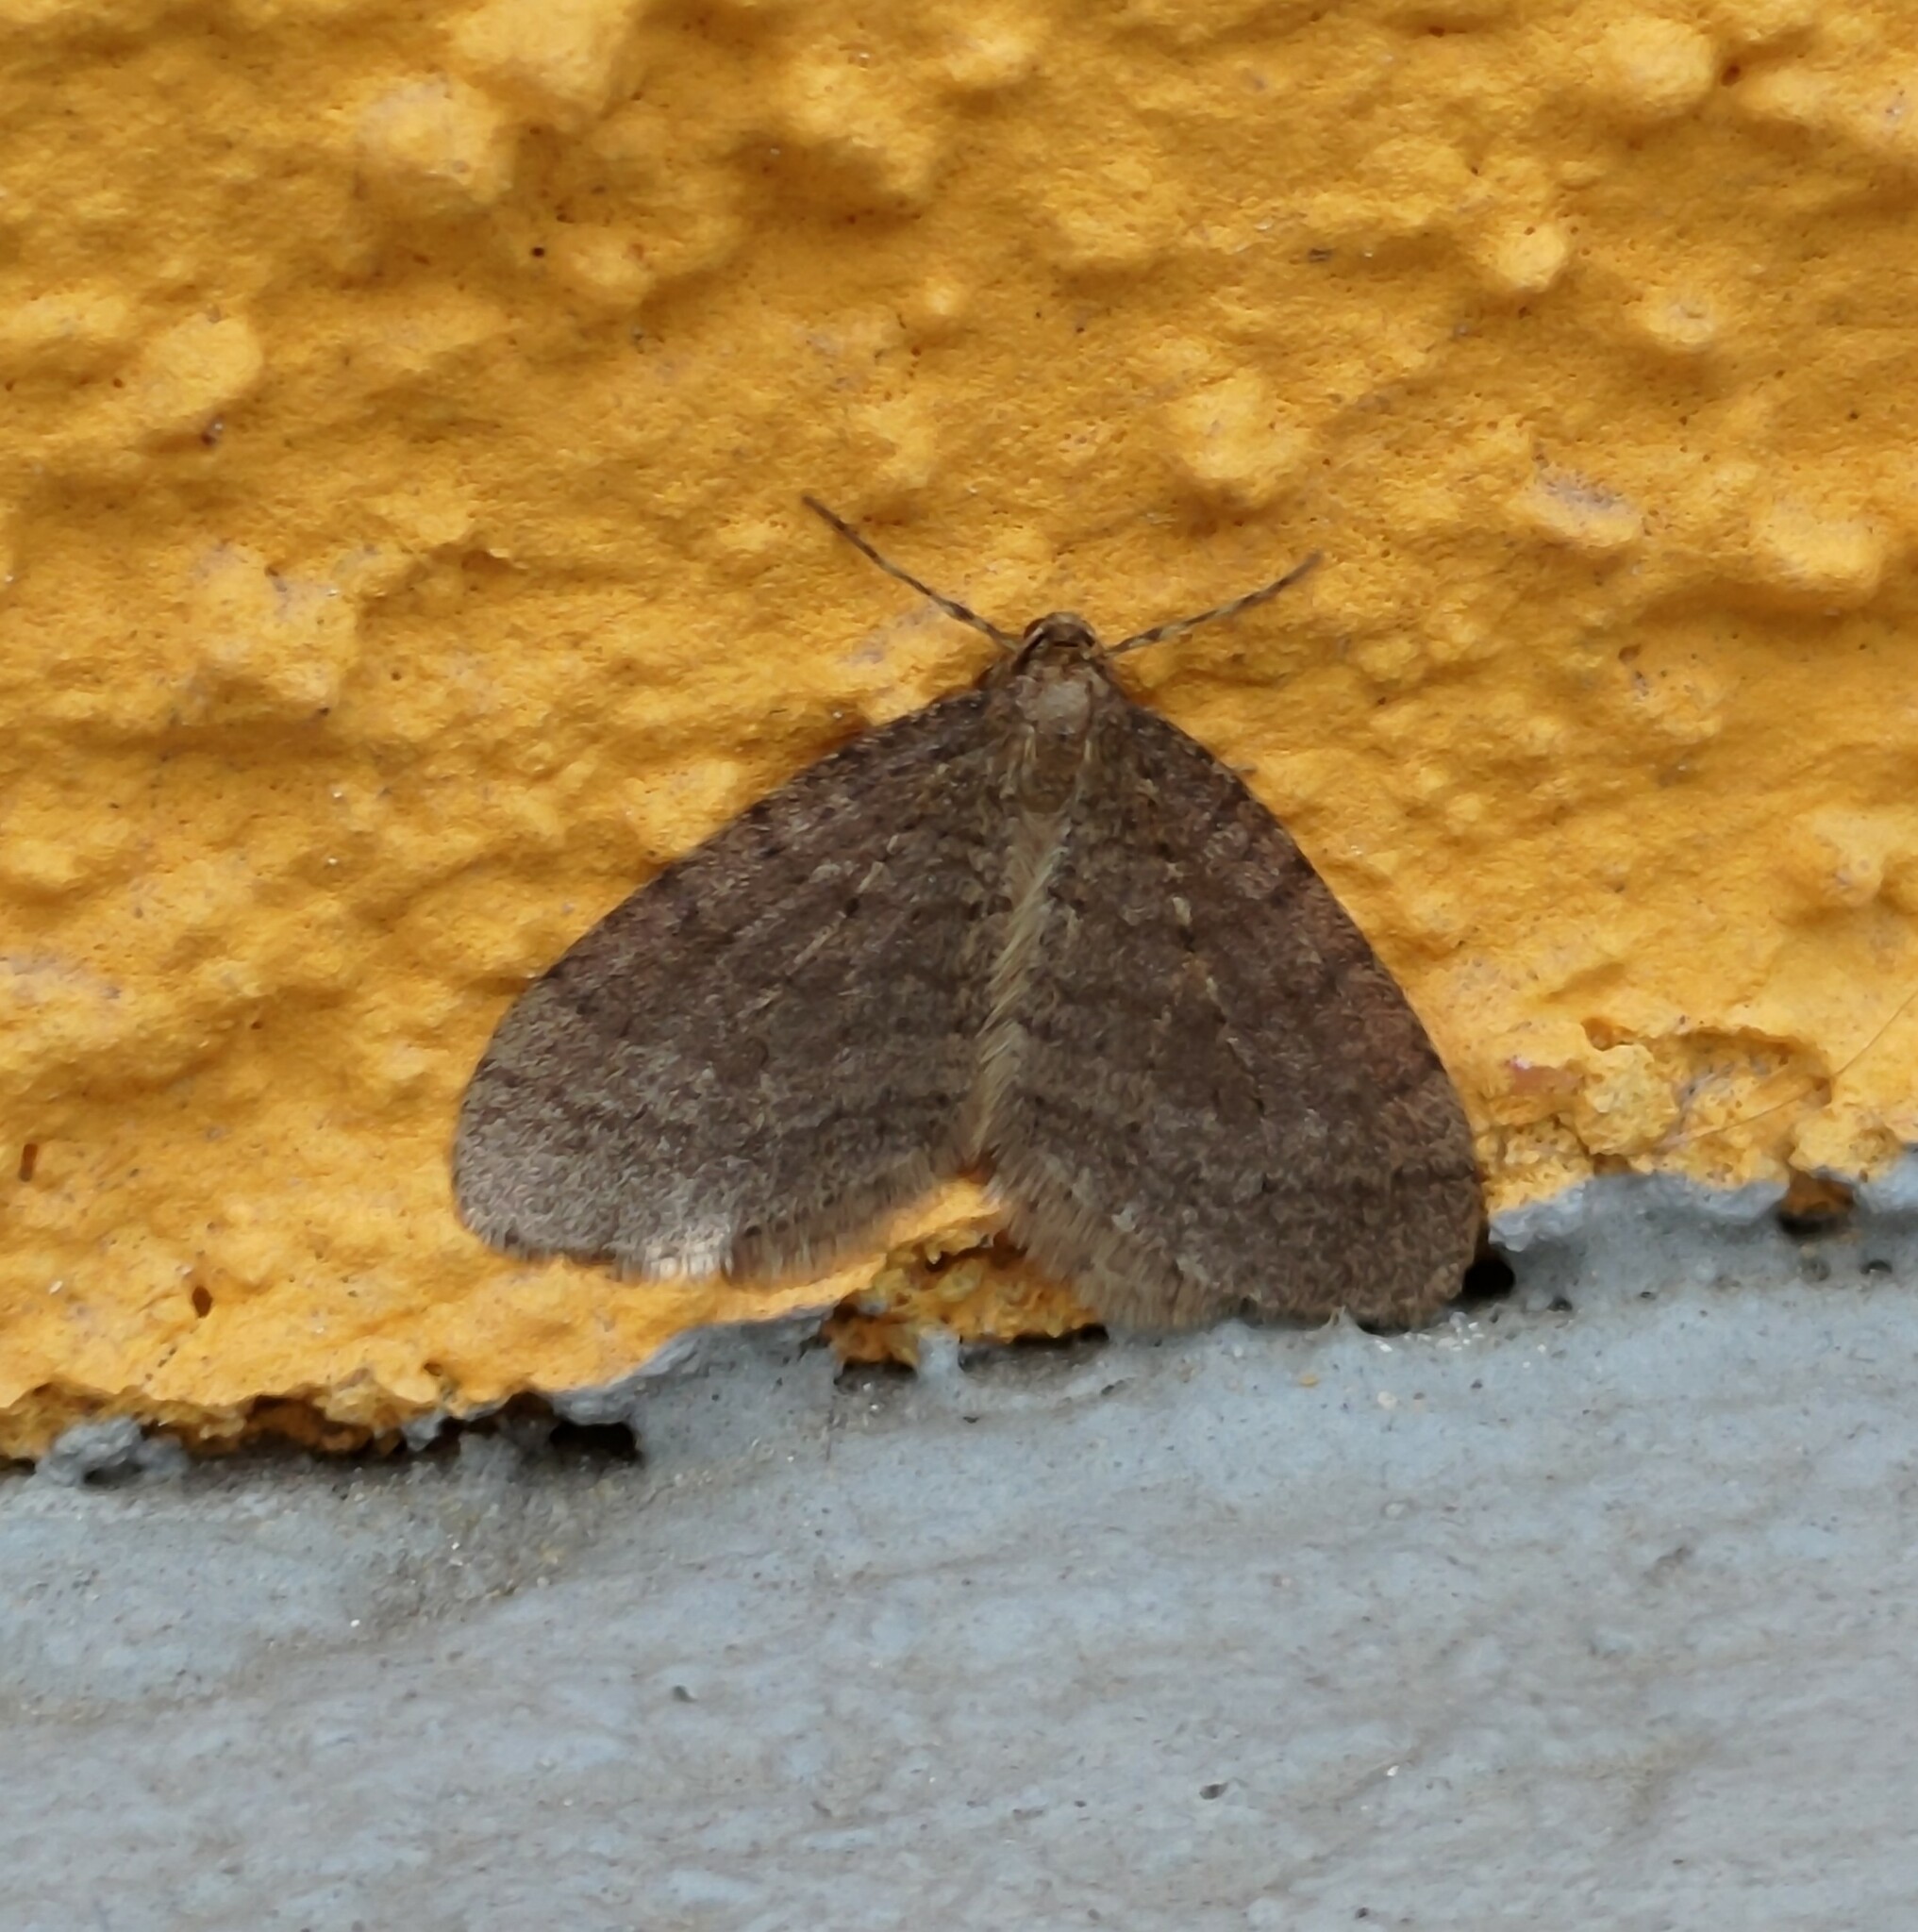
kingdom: Animalia
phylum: Arthropoda
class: Insecta
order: Lepidoptera
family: Geometridae
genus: Operophtera
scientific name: Operophtera brumata
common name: Winter moth
